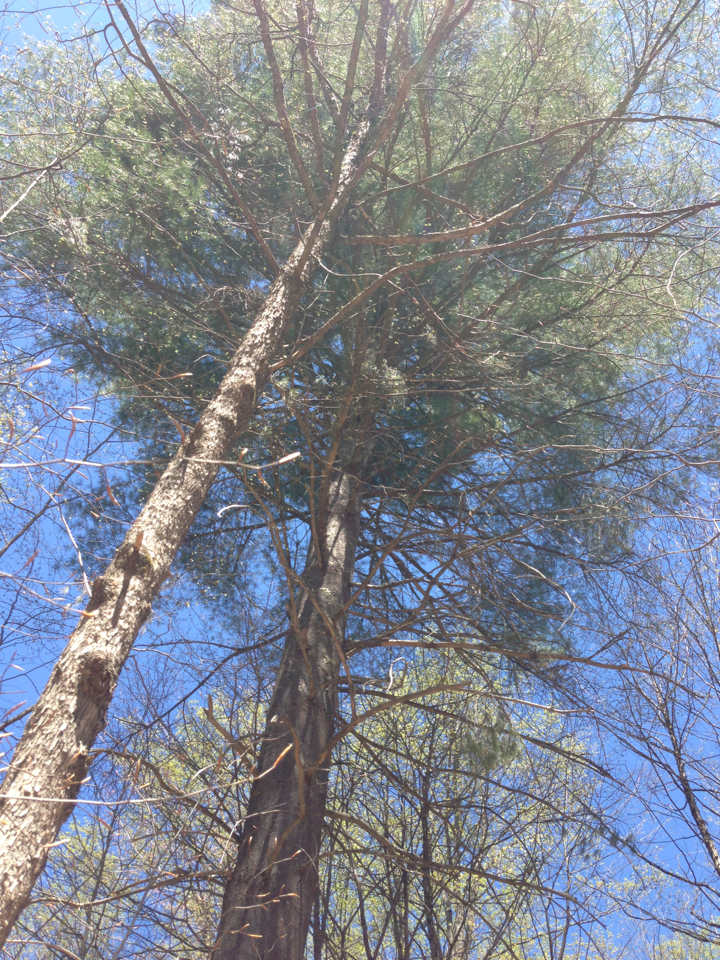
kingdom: Plantae
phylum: Tracheophyta
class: Pinopsida
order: Pinales
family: Pinaceae
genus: Pinus
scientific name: Pinus strobus
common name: Weymouth pine
